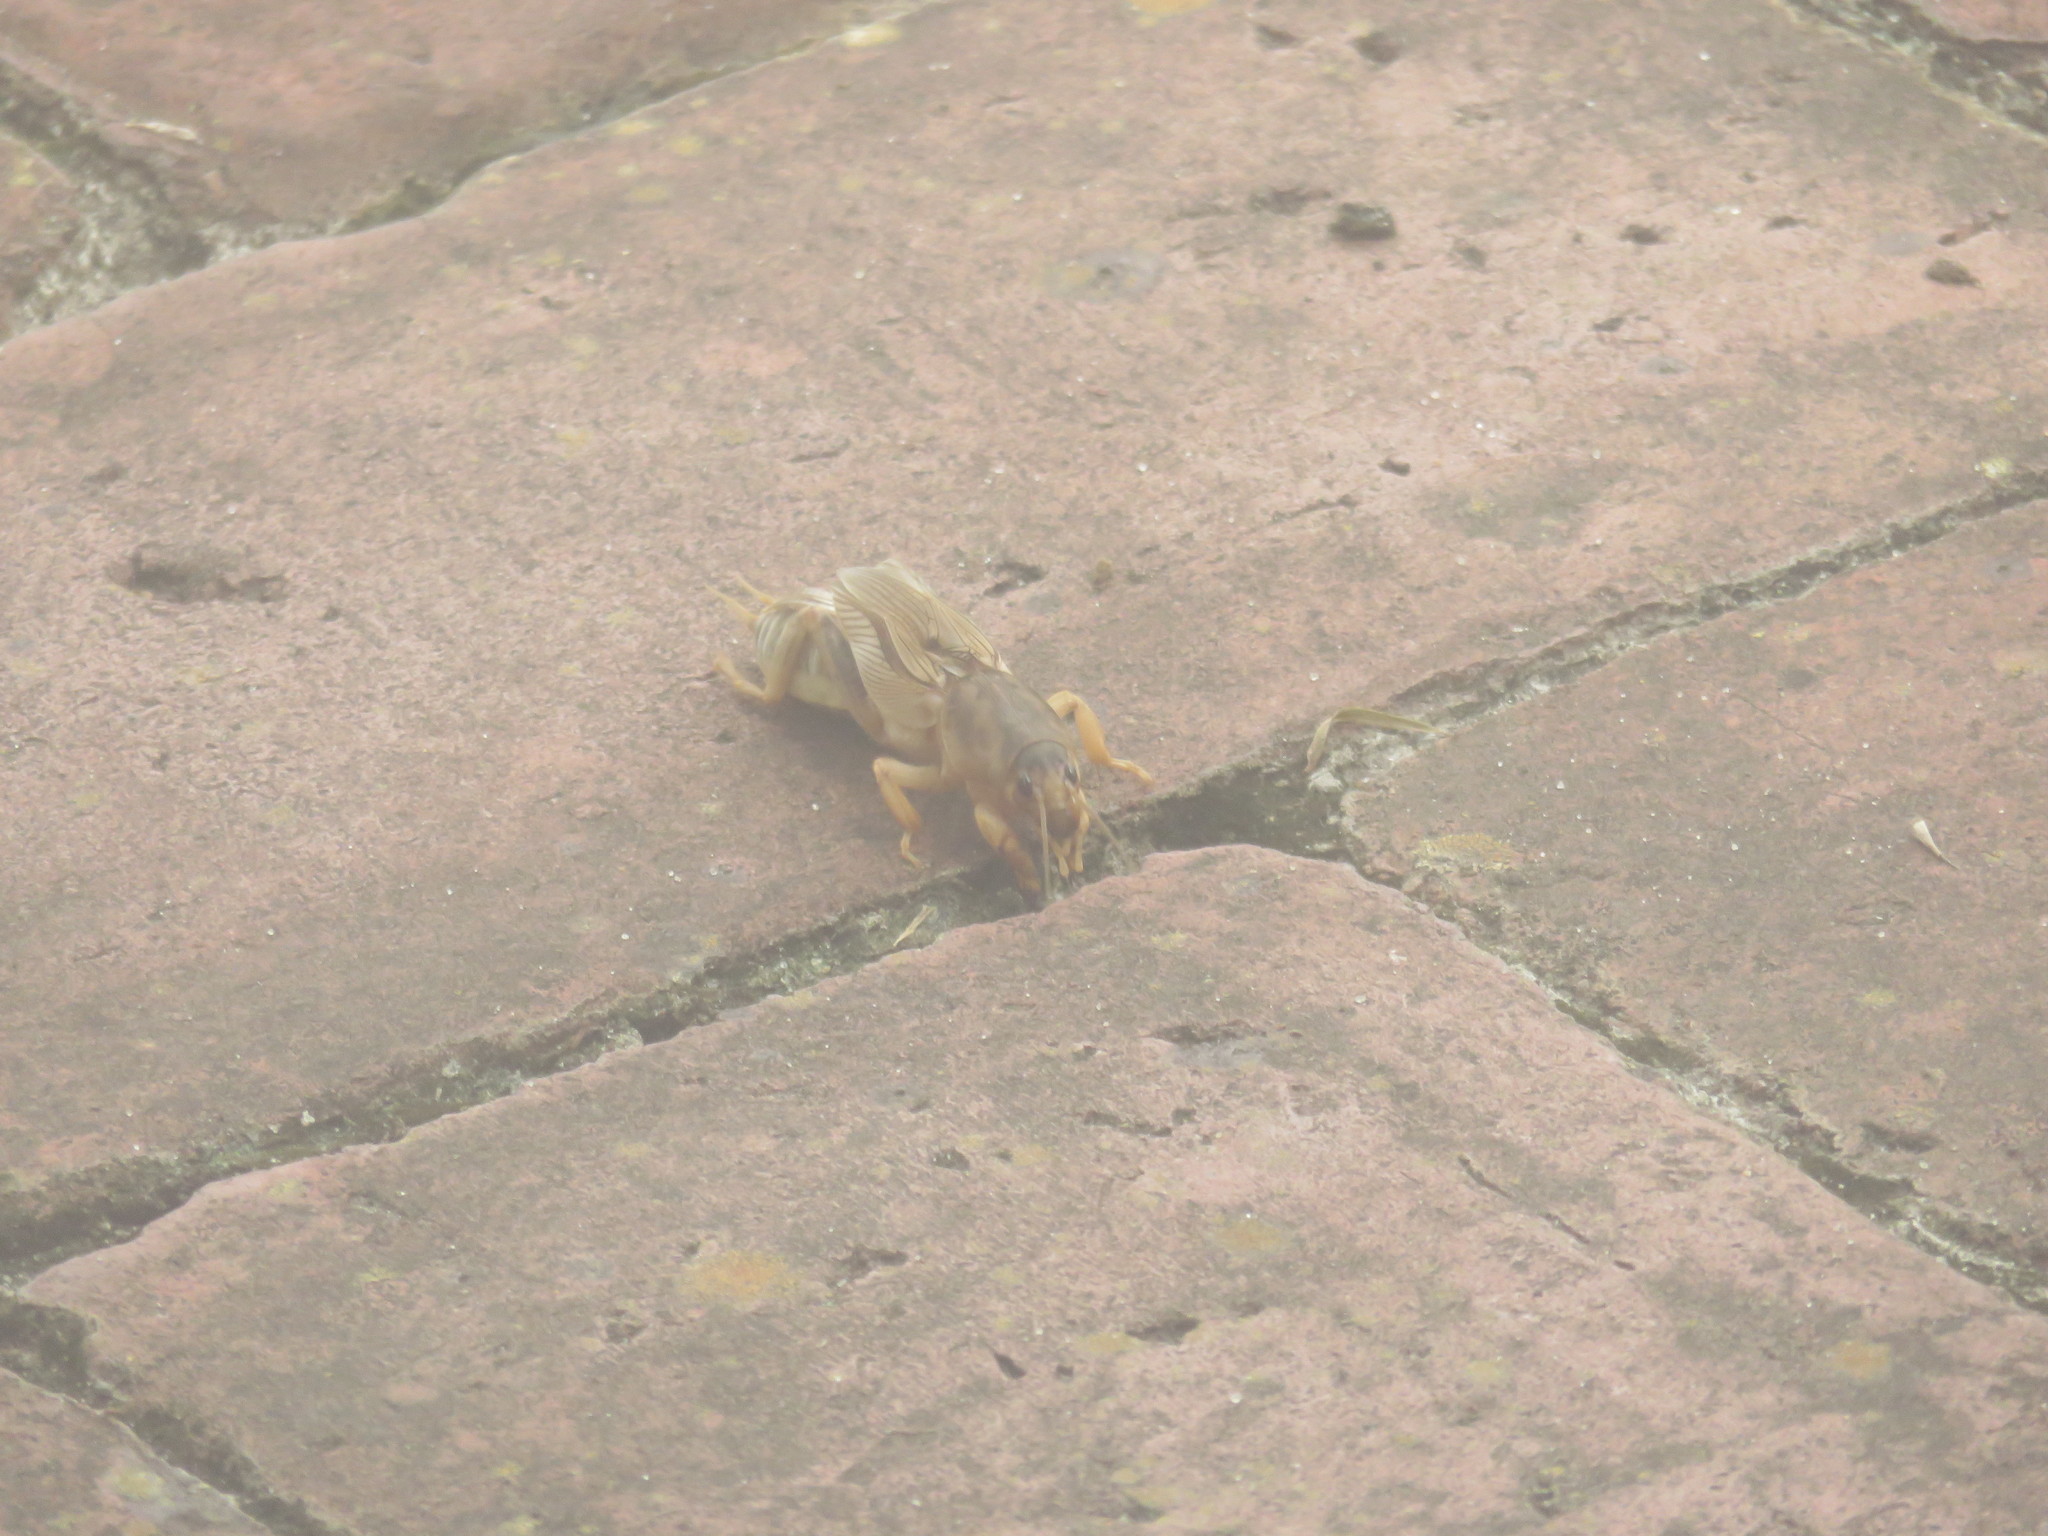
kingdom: Animalia
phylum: Arthropoda
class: Insecta
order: Orthoptera
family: Gryllotalpidae
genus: Neoscapteriscus
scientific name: Neoscapteriscus vicinus
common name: Tawny mole cricket
